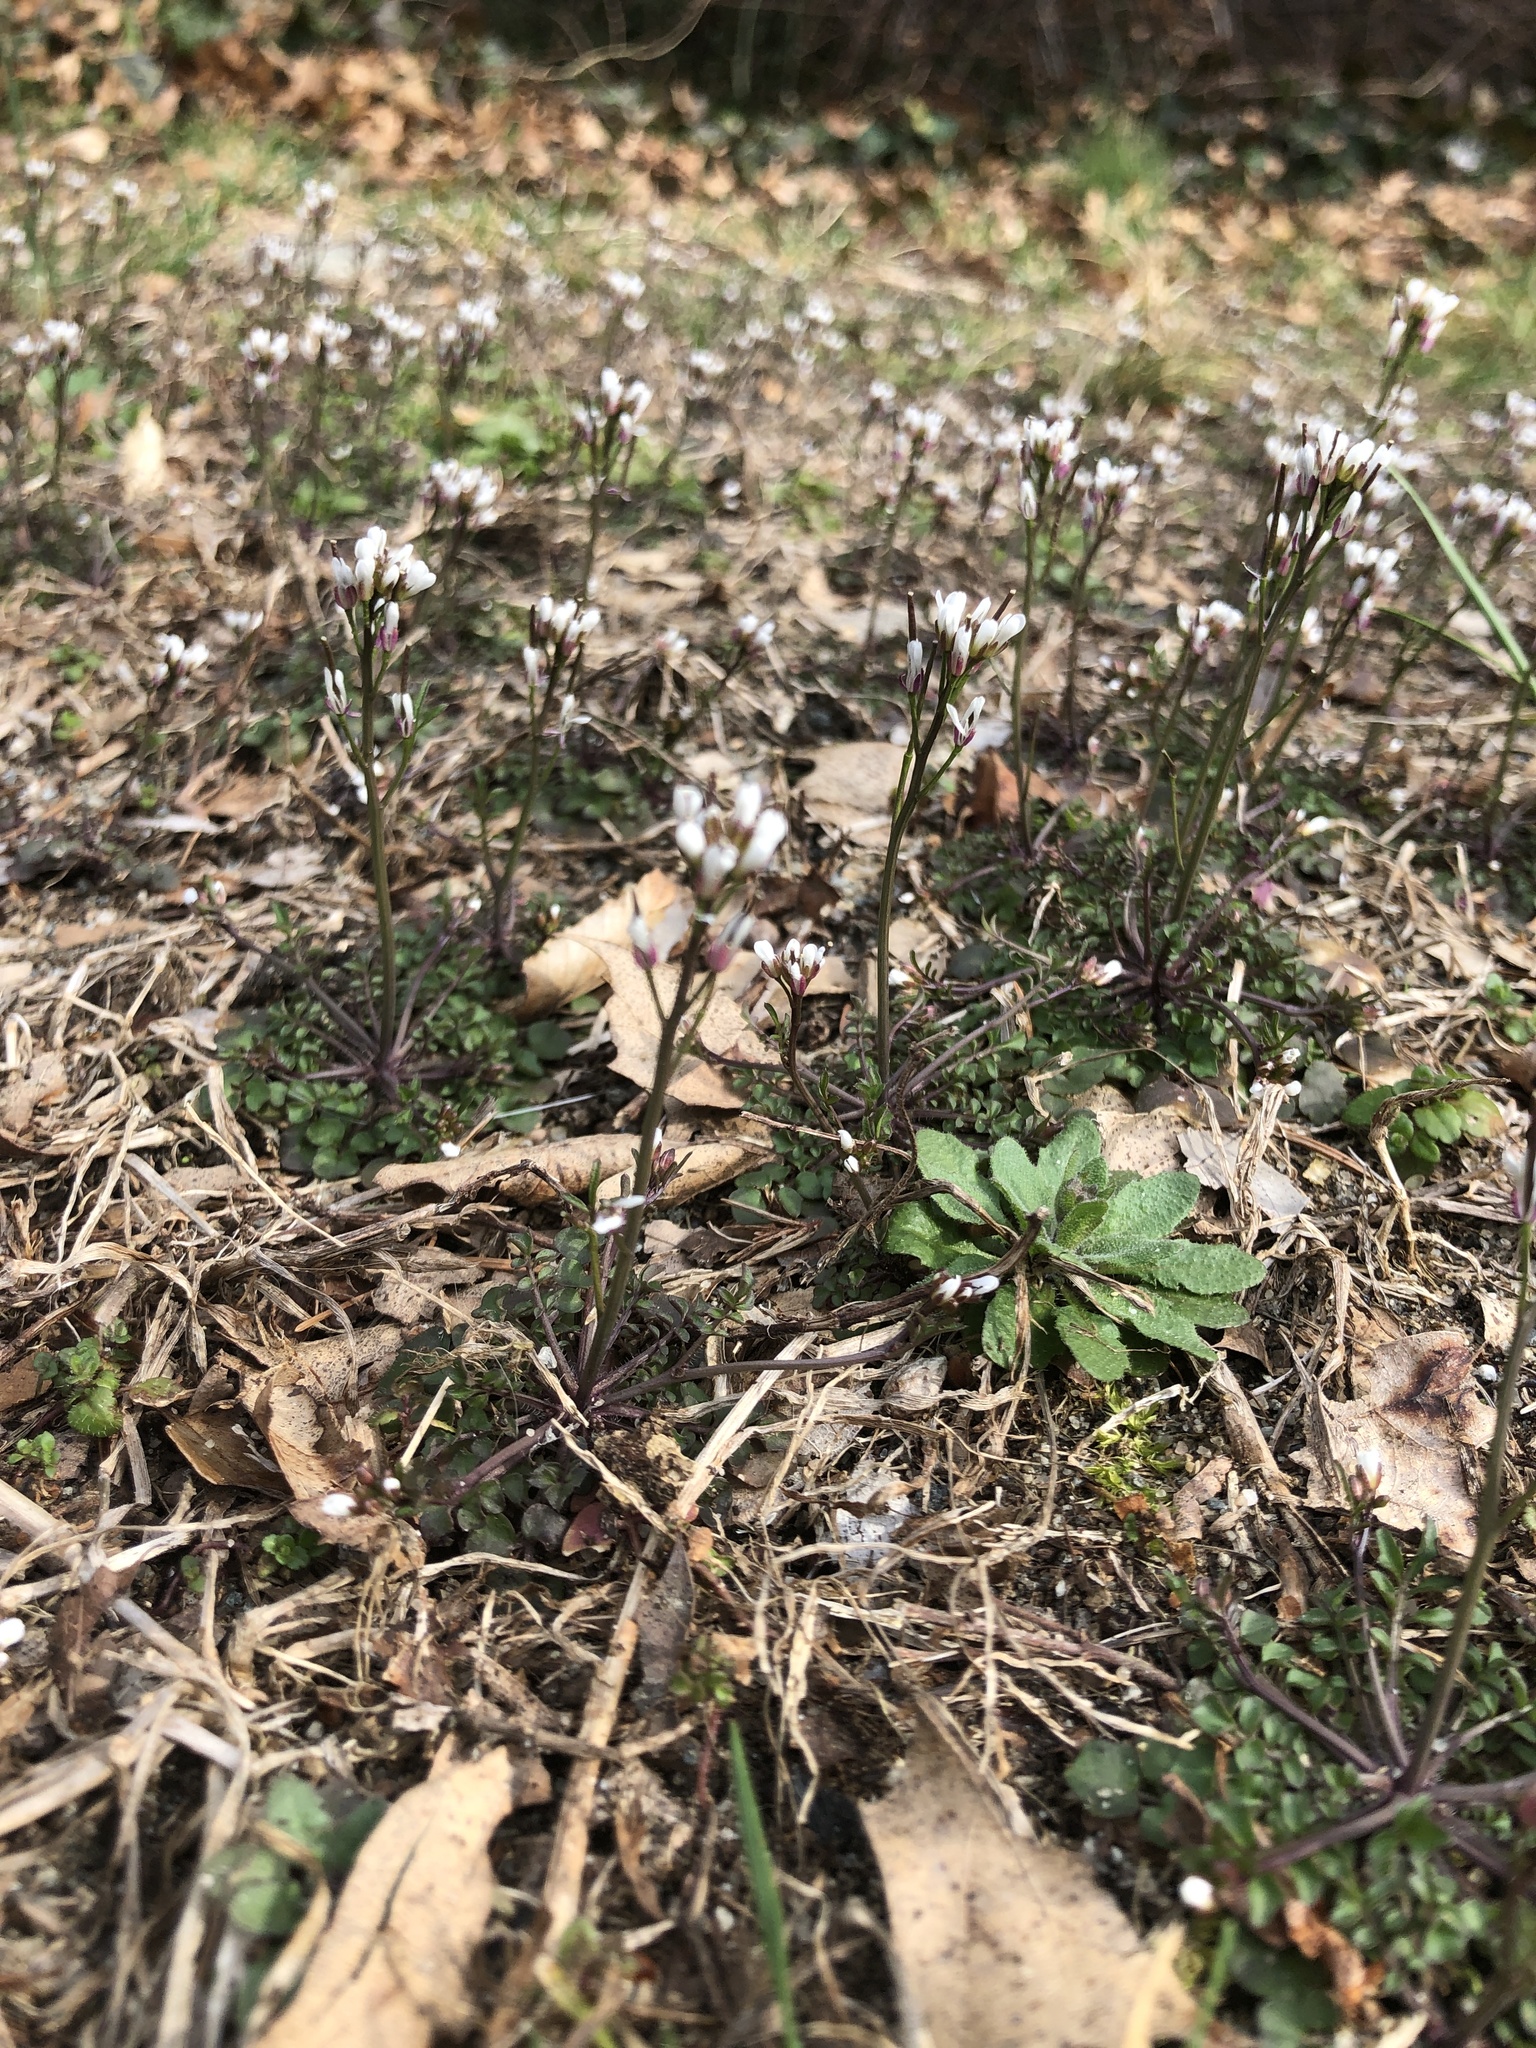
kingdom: Plantae
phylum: Tracheophyta
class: Magnoliopsida
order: Brassicales
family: Brassicaceae
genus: Cardamine
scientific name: Cardamine hirsuta
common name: Hairy bittercress
